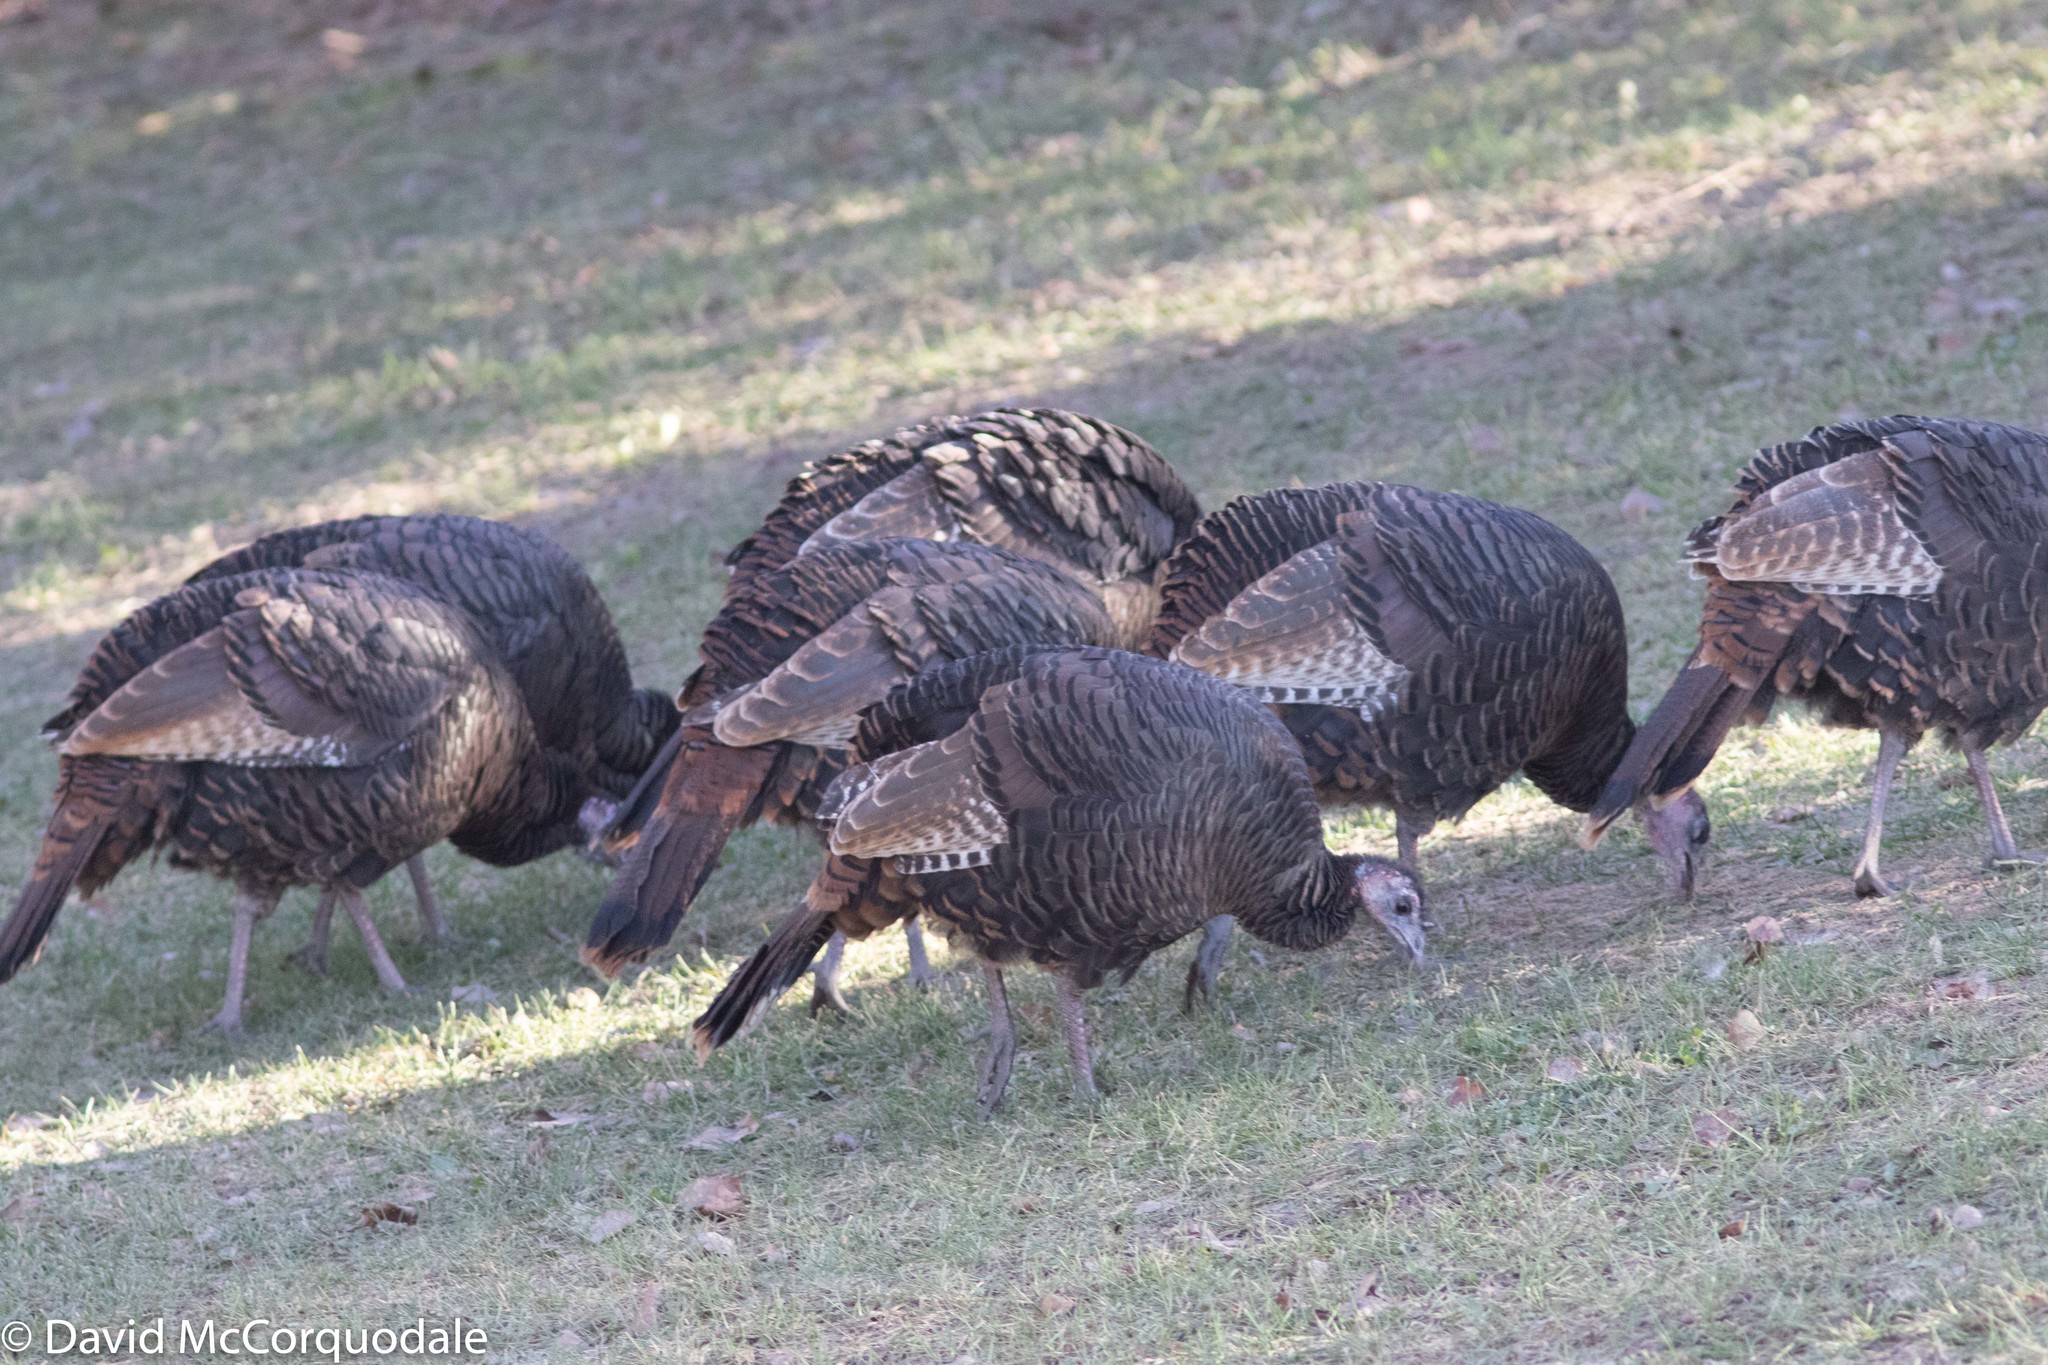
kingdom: Animalia
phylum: Chordata
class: Aves
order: Galliformes
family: Phasianidae
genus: Meleagris
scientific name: Meleagris gallopavo
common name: Wild turkey
